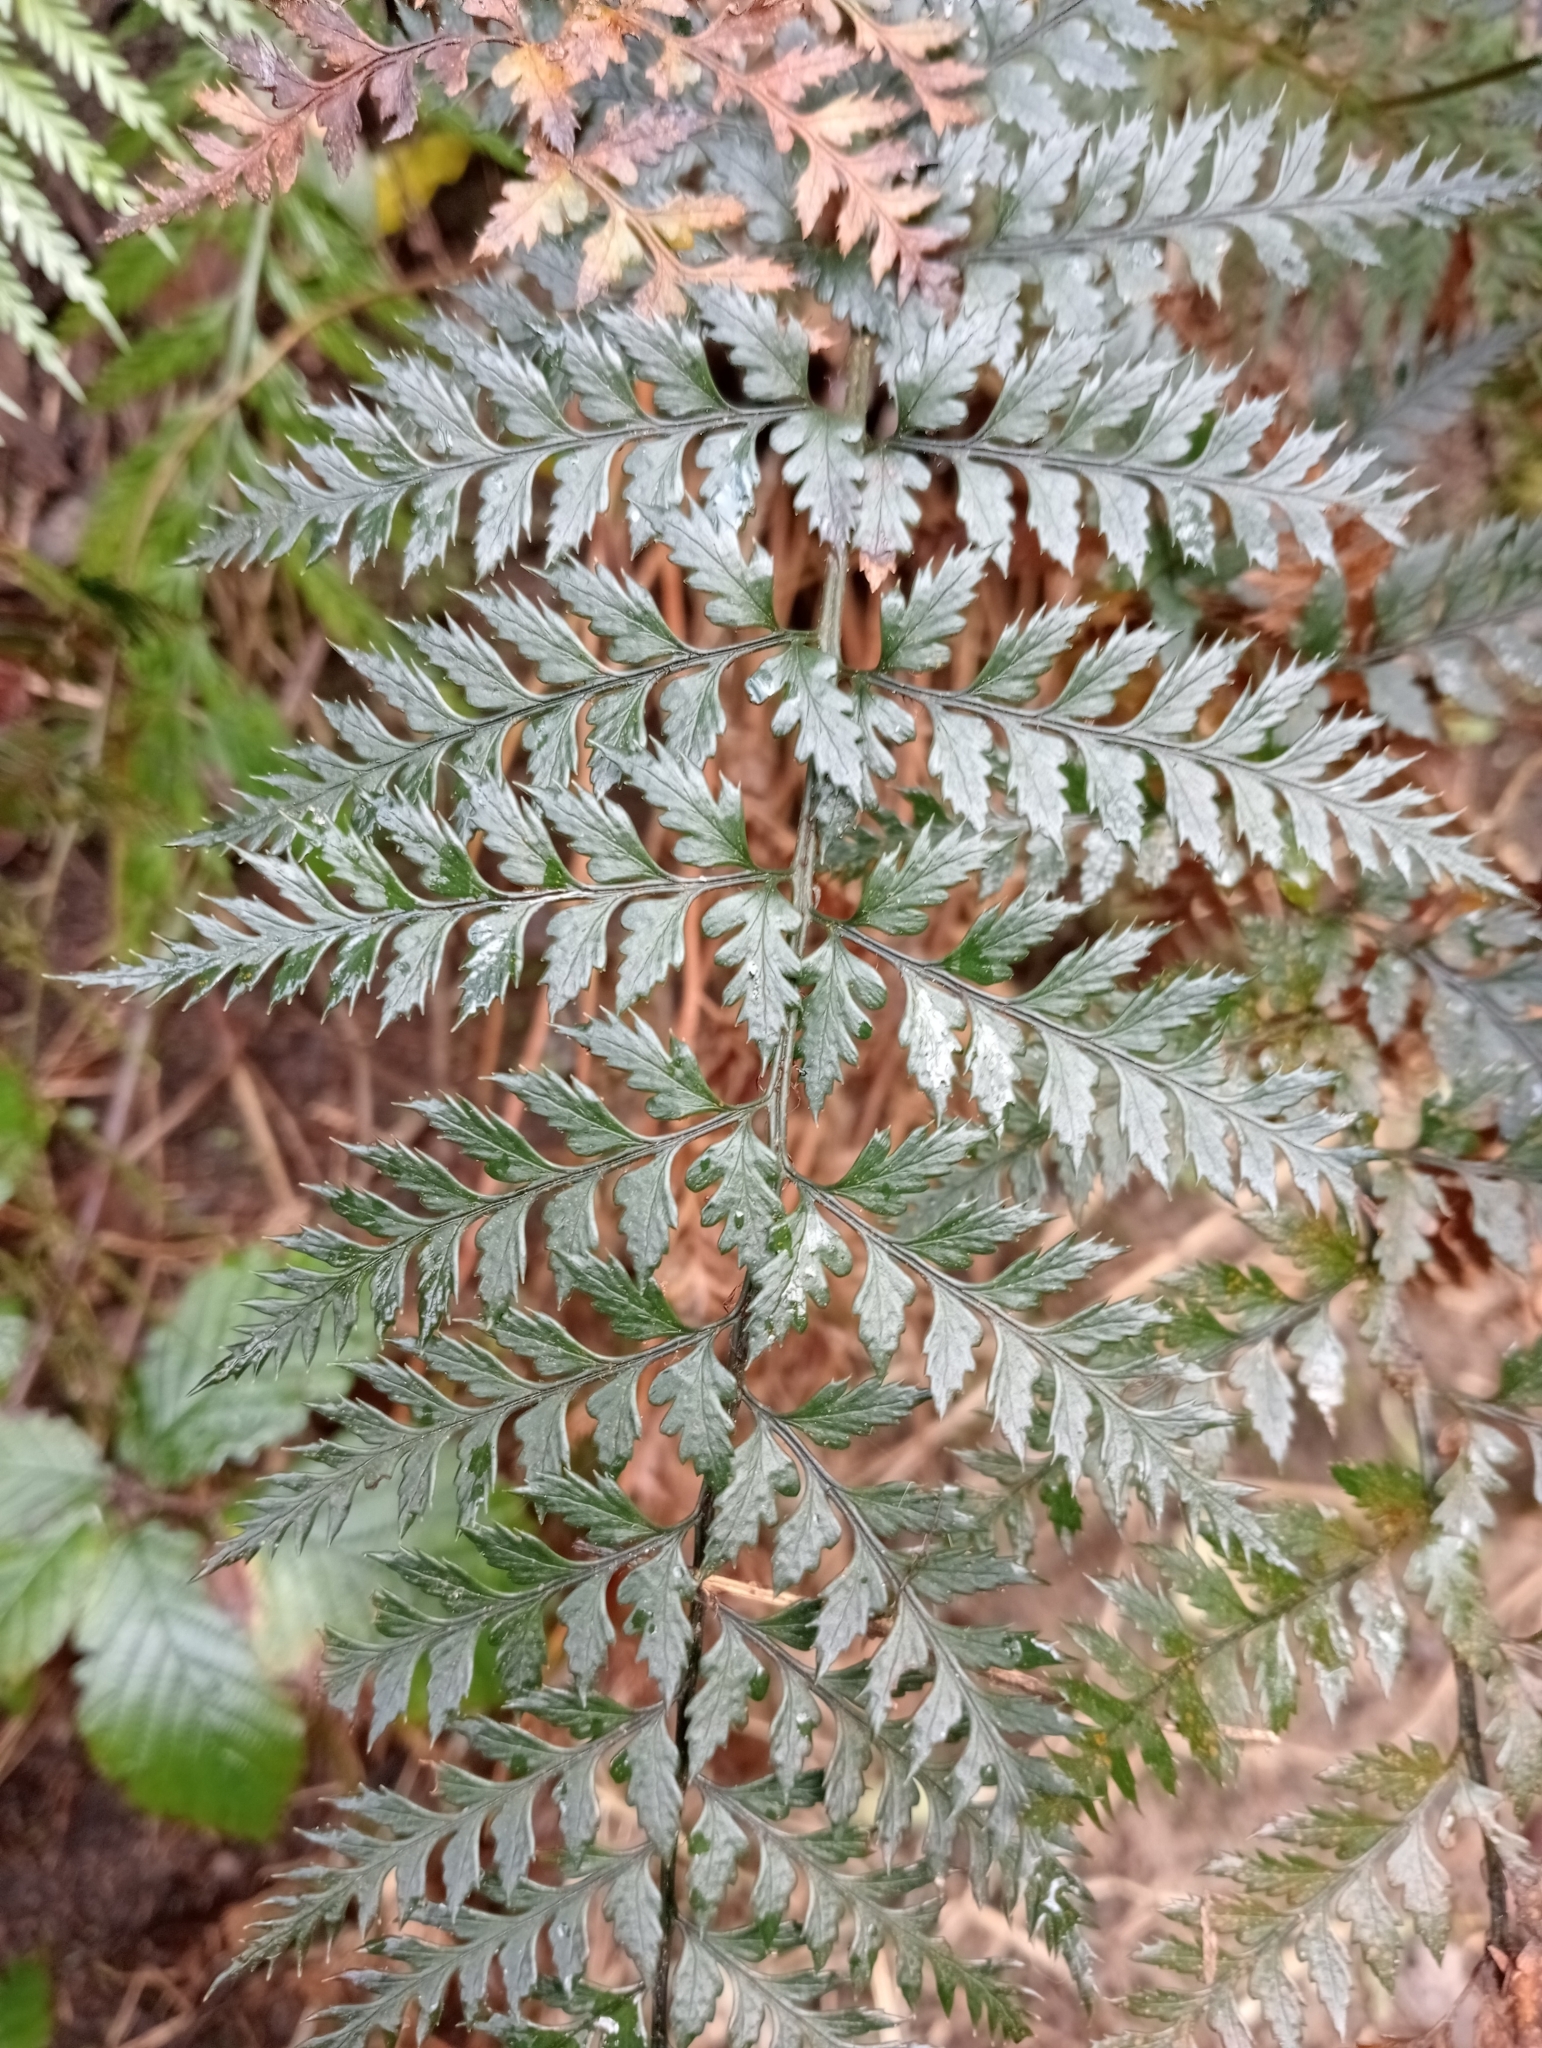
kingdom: Plantae
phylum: Tracheophyta
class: Polypodiopsida
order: Polypodiales
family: Dryopteridaceae
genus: Polystichum
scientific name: Polystichum neozelandicum
